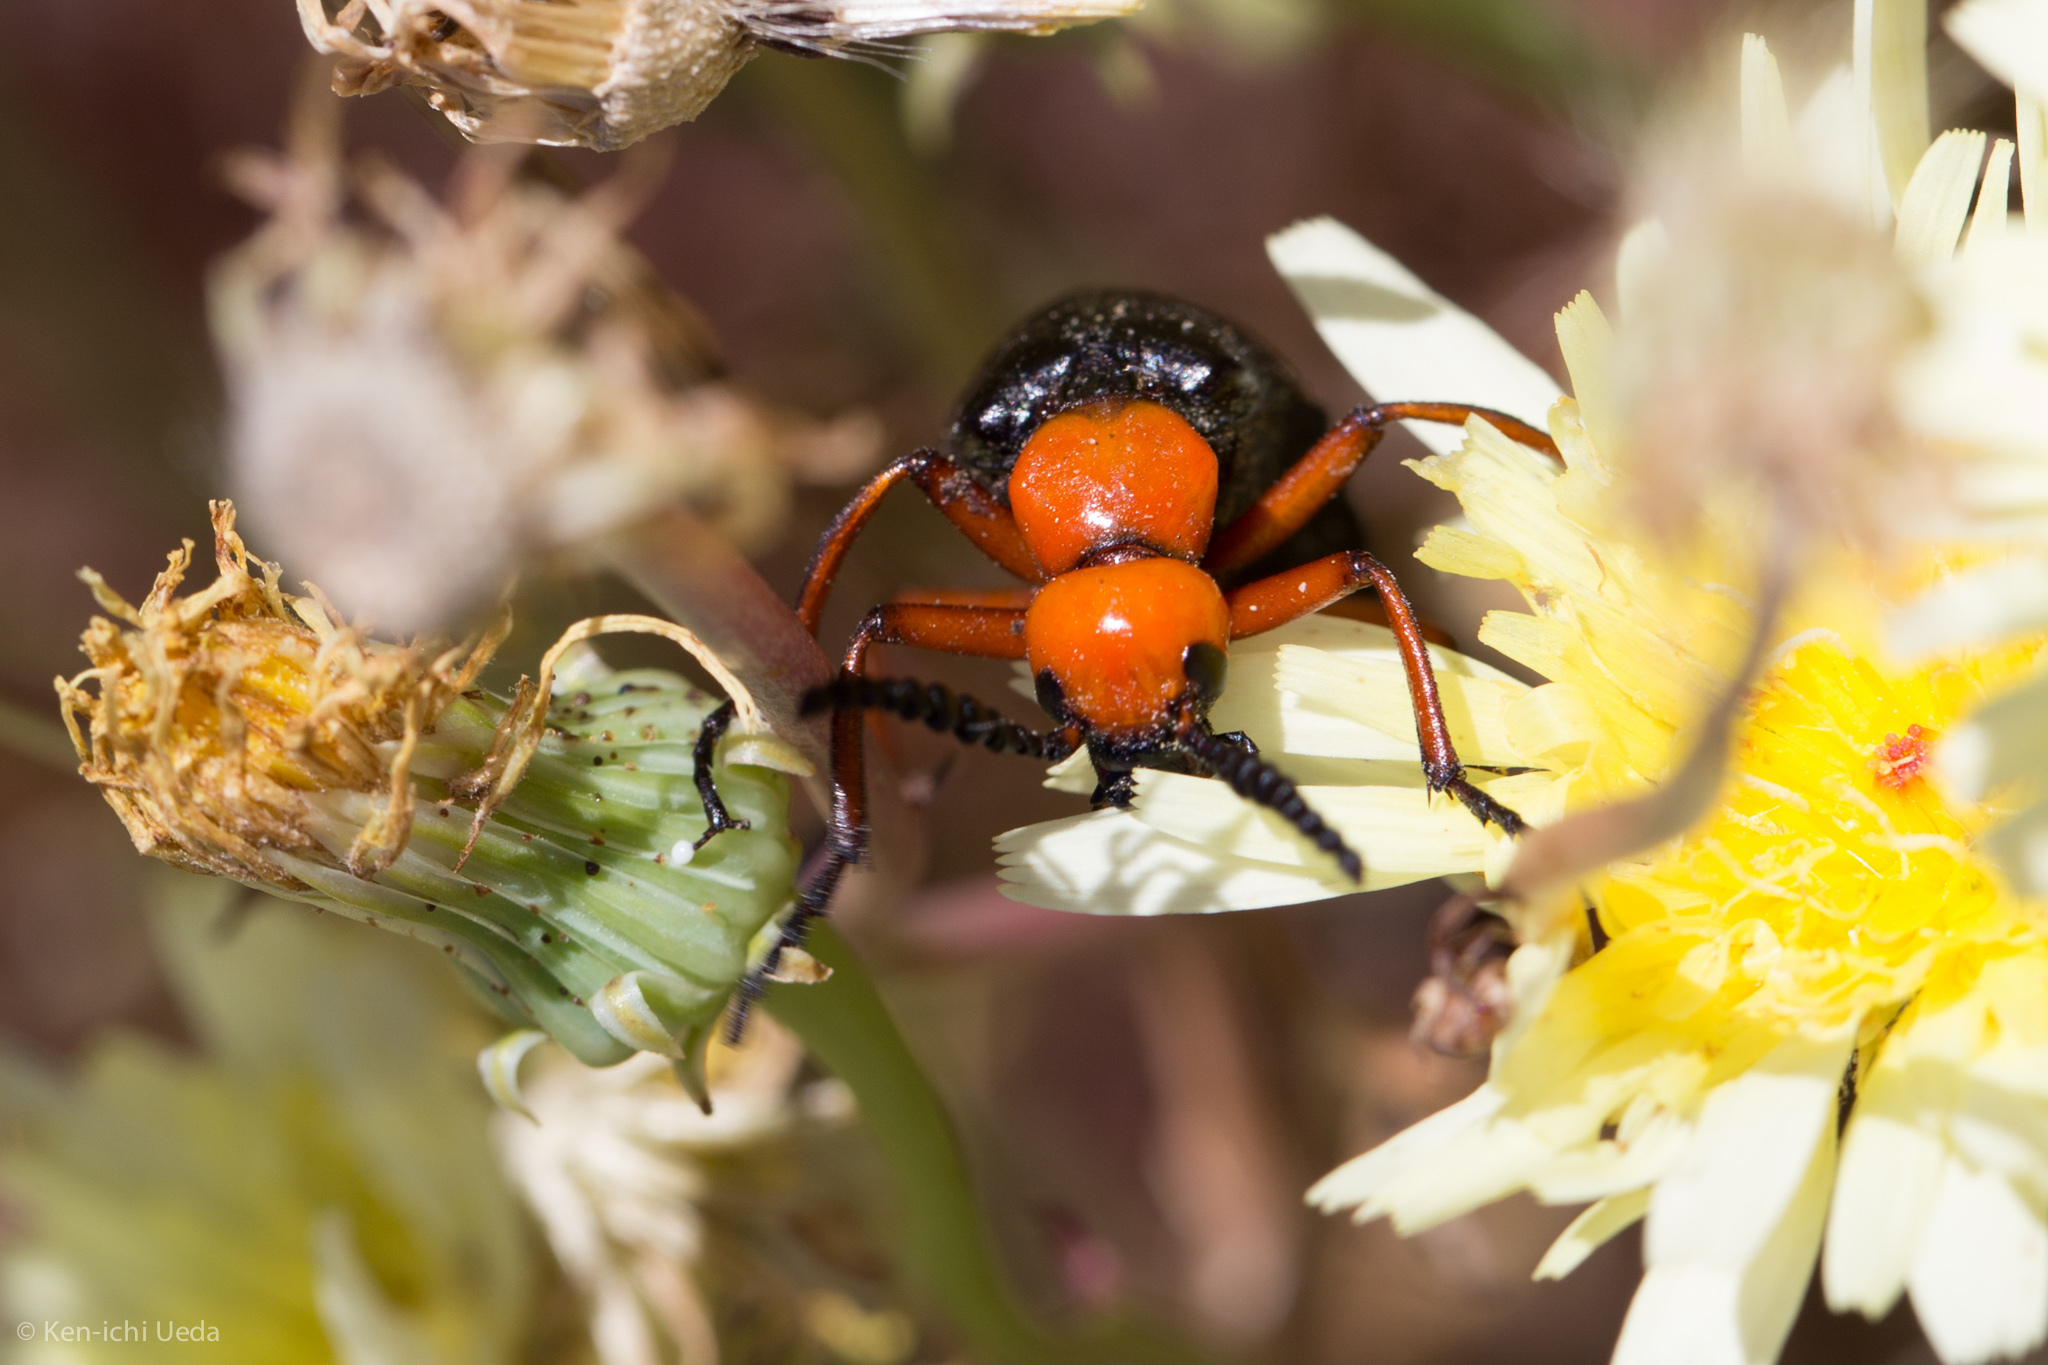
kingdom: Animalia
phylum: Arthropoda
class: Insecta
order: Coleoptera
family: Meloidae
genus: Lytta
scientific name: Lytta magister
